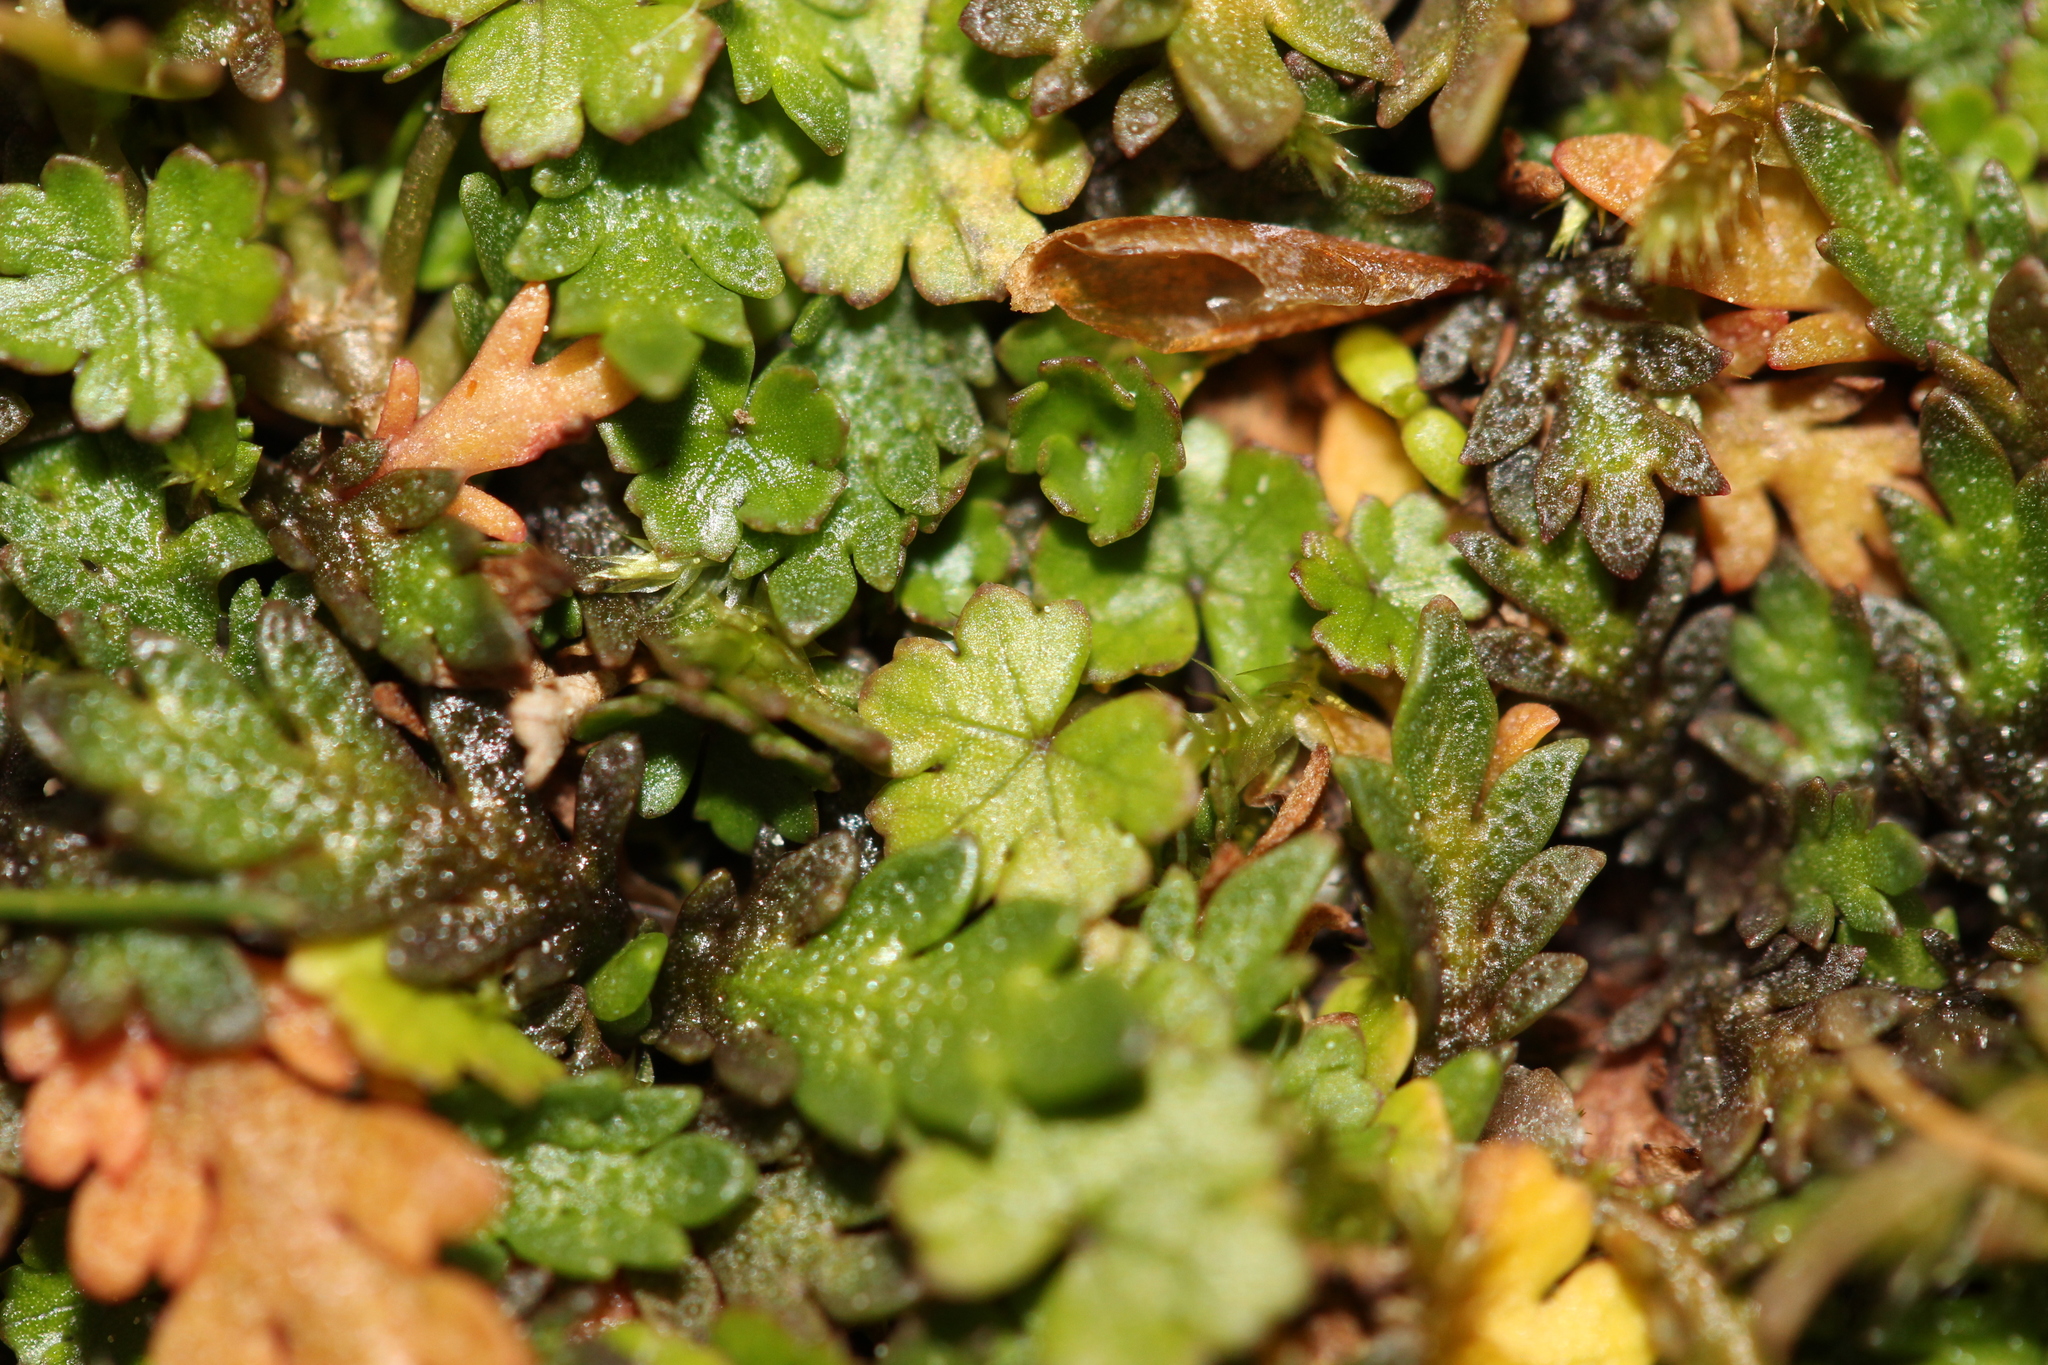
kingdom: Plantae
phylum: Tracheophyta
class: Magnoliopsida
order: Apiales
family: Araliaceae
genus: Hydrocotyle
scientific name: Hydrocotyle novae-zeelandiae
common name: New zealand pennywort
